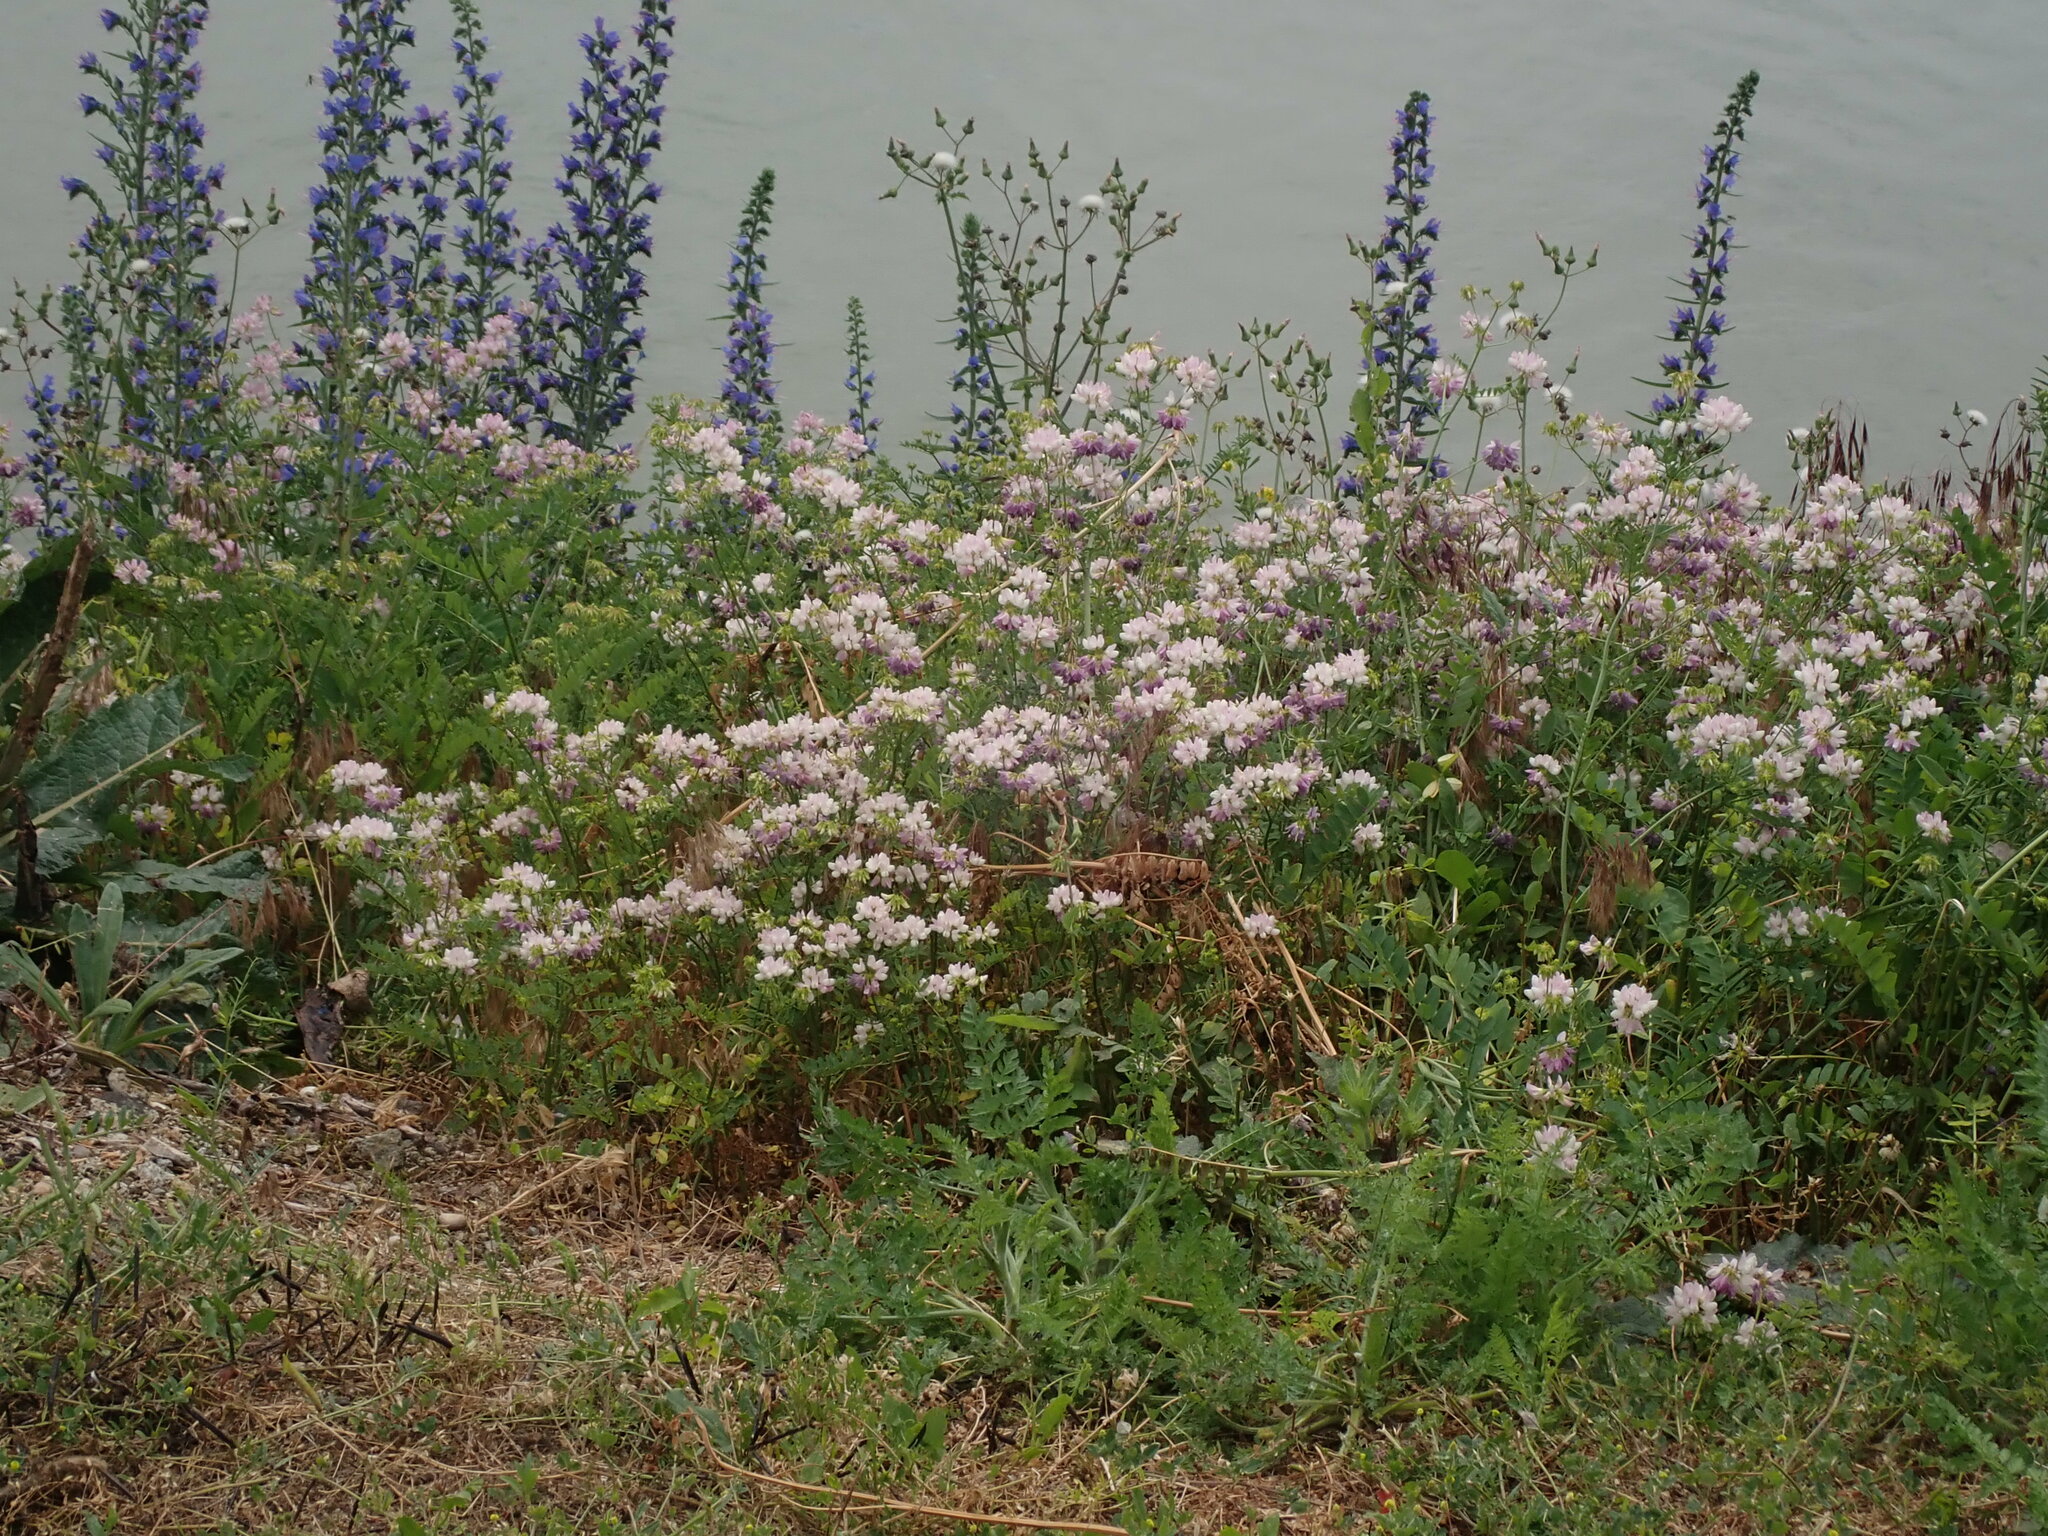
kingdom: Plantae
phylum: Tracheophyta
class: Magnoliopsida
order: Fabales
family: Fabaceae
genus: Coronilla
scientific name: Coronilla varia
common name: Crownvetch
